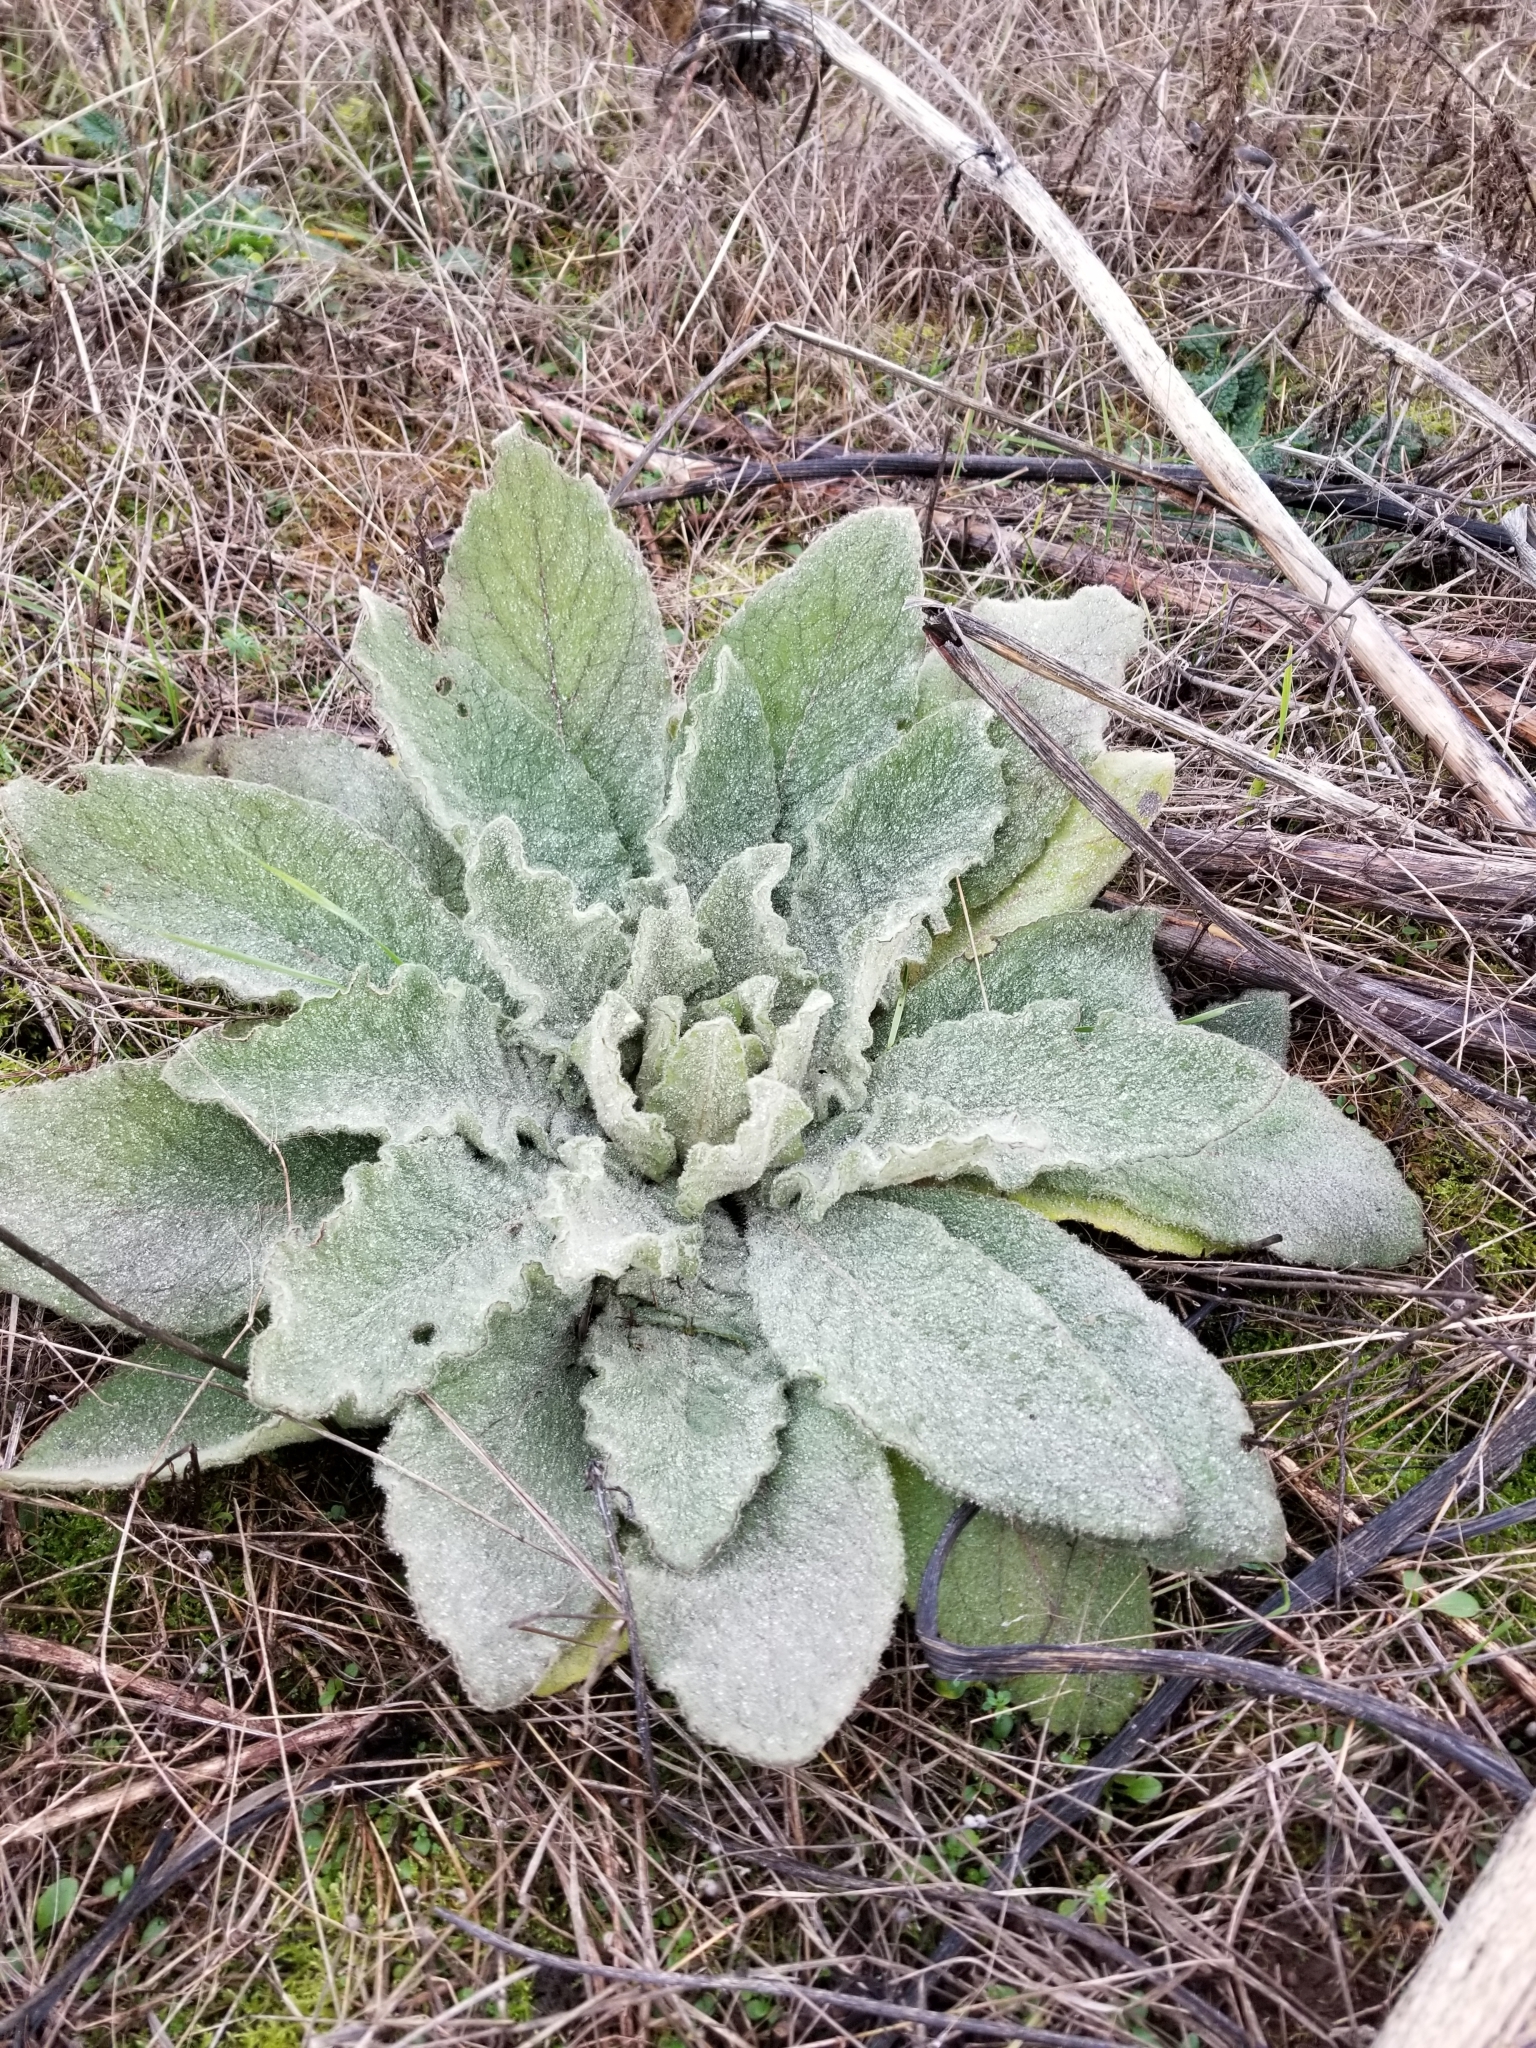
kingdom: Plantae
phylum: Tracheophyta
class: Magnoliopsida
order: Lamiales
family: Scrophulariaceae
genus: Verbascum
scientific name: Verbascum thapsus
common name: Common mullein
